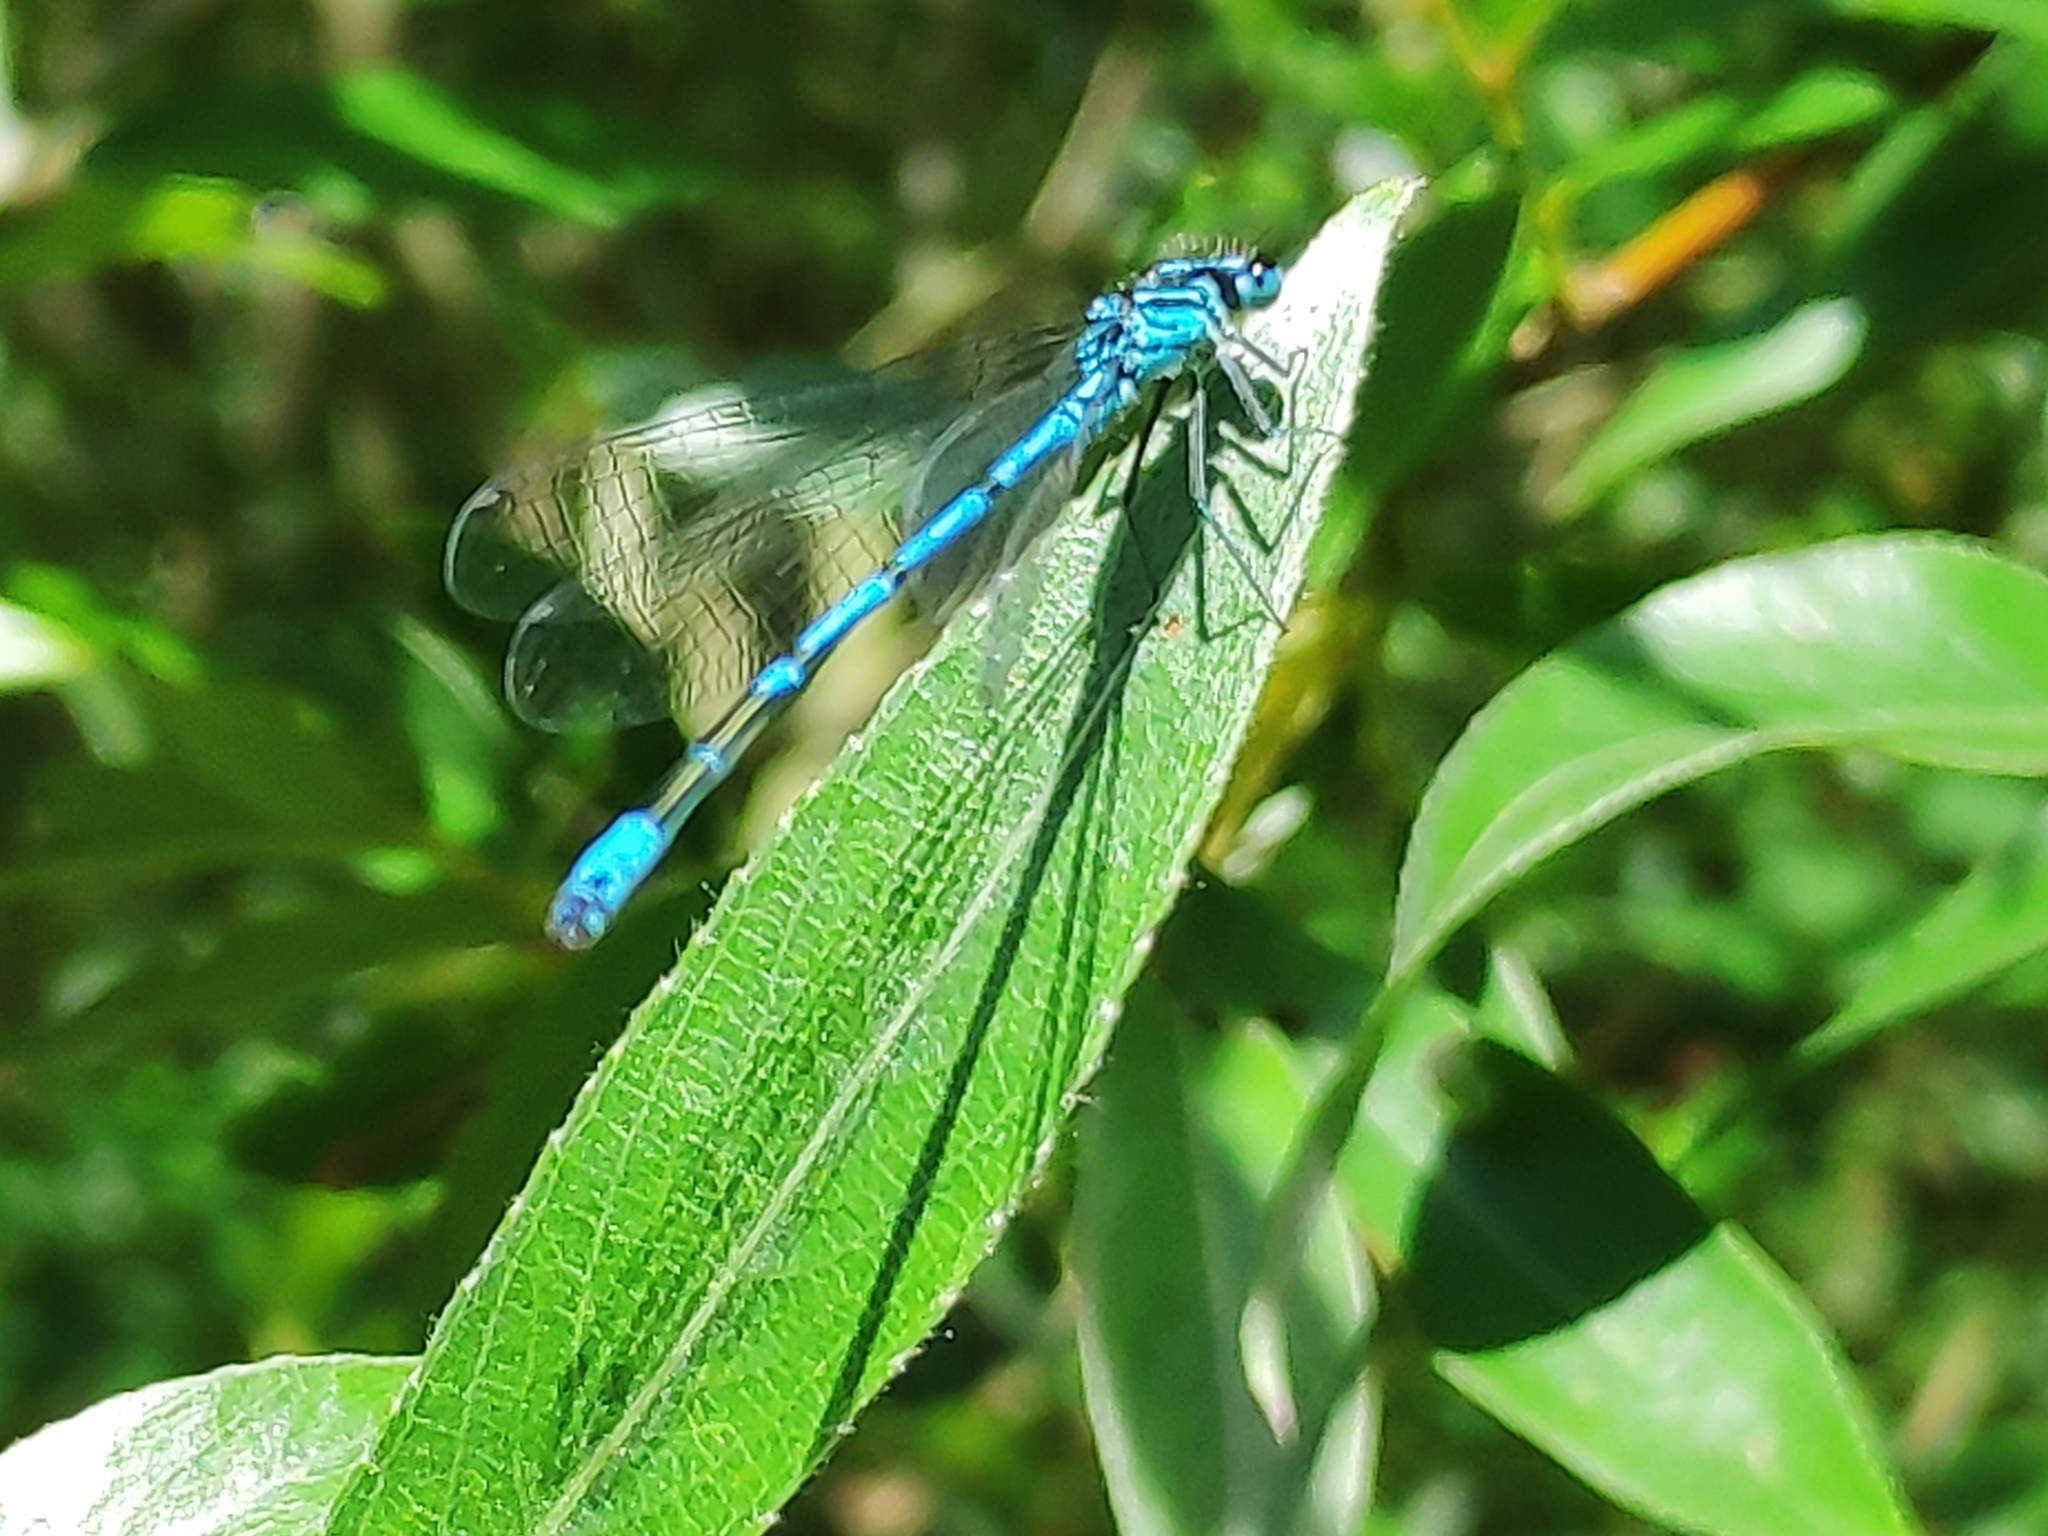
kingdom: Animalia
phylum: Arthropoda
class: Insecta
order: Odonata
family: Coenagrionidae
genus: Coenagrion
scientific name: Coenagrion puella
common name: Azure damselfly
